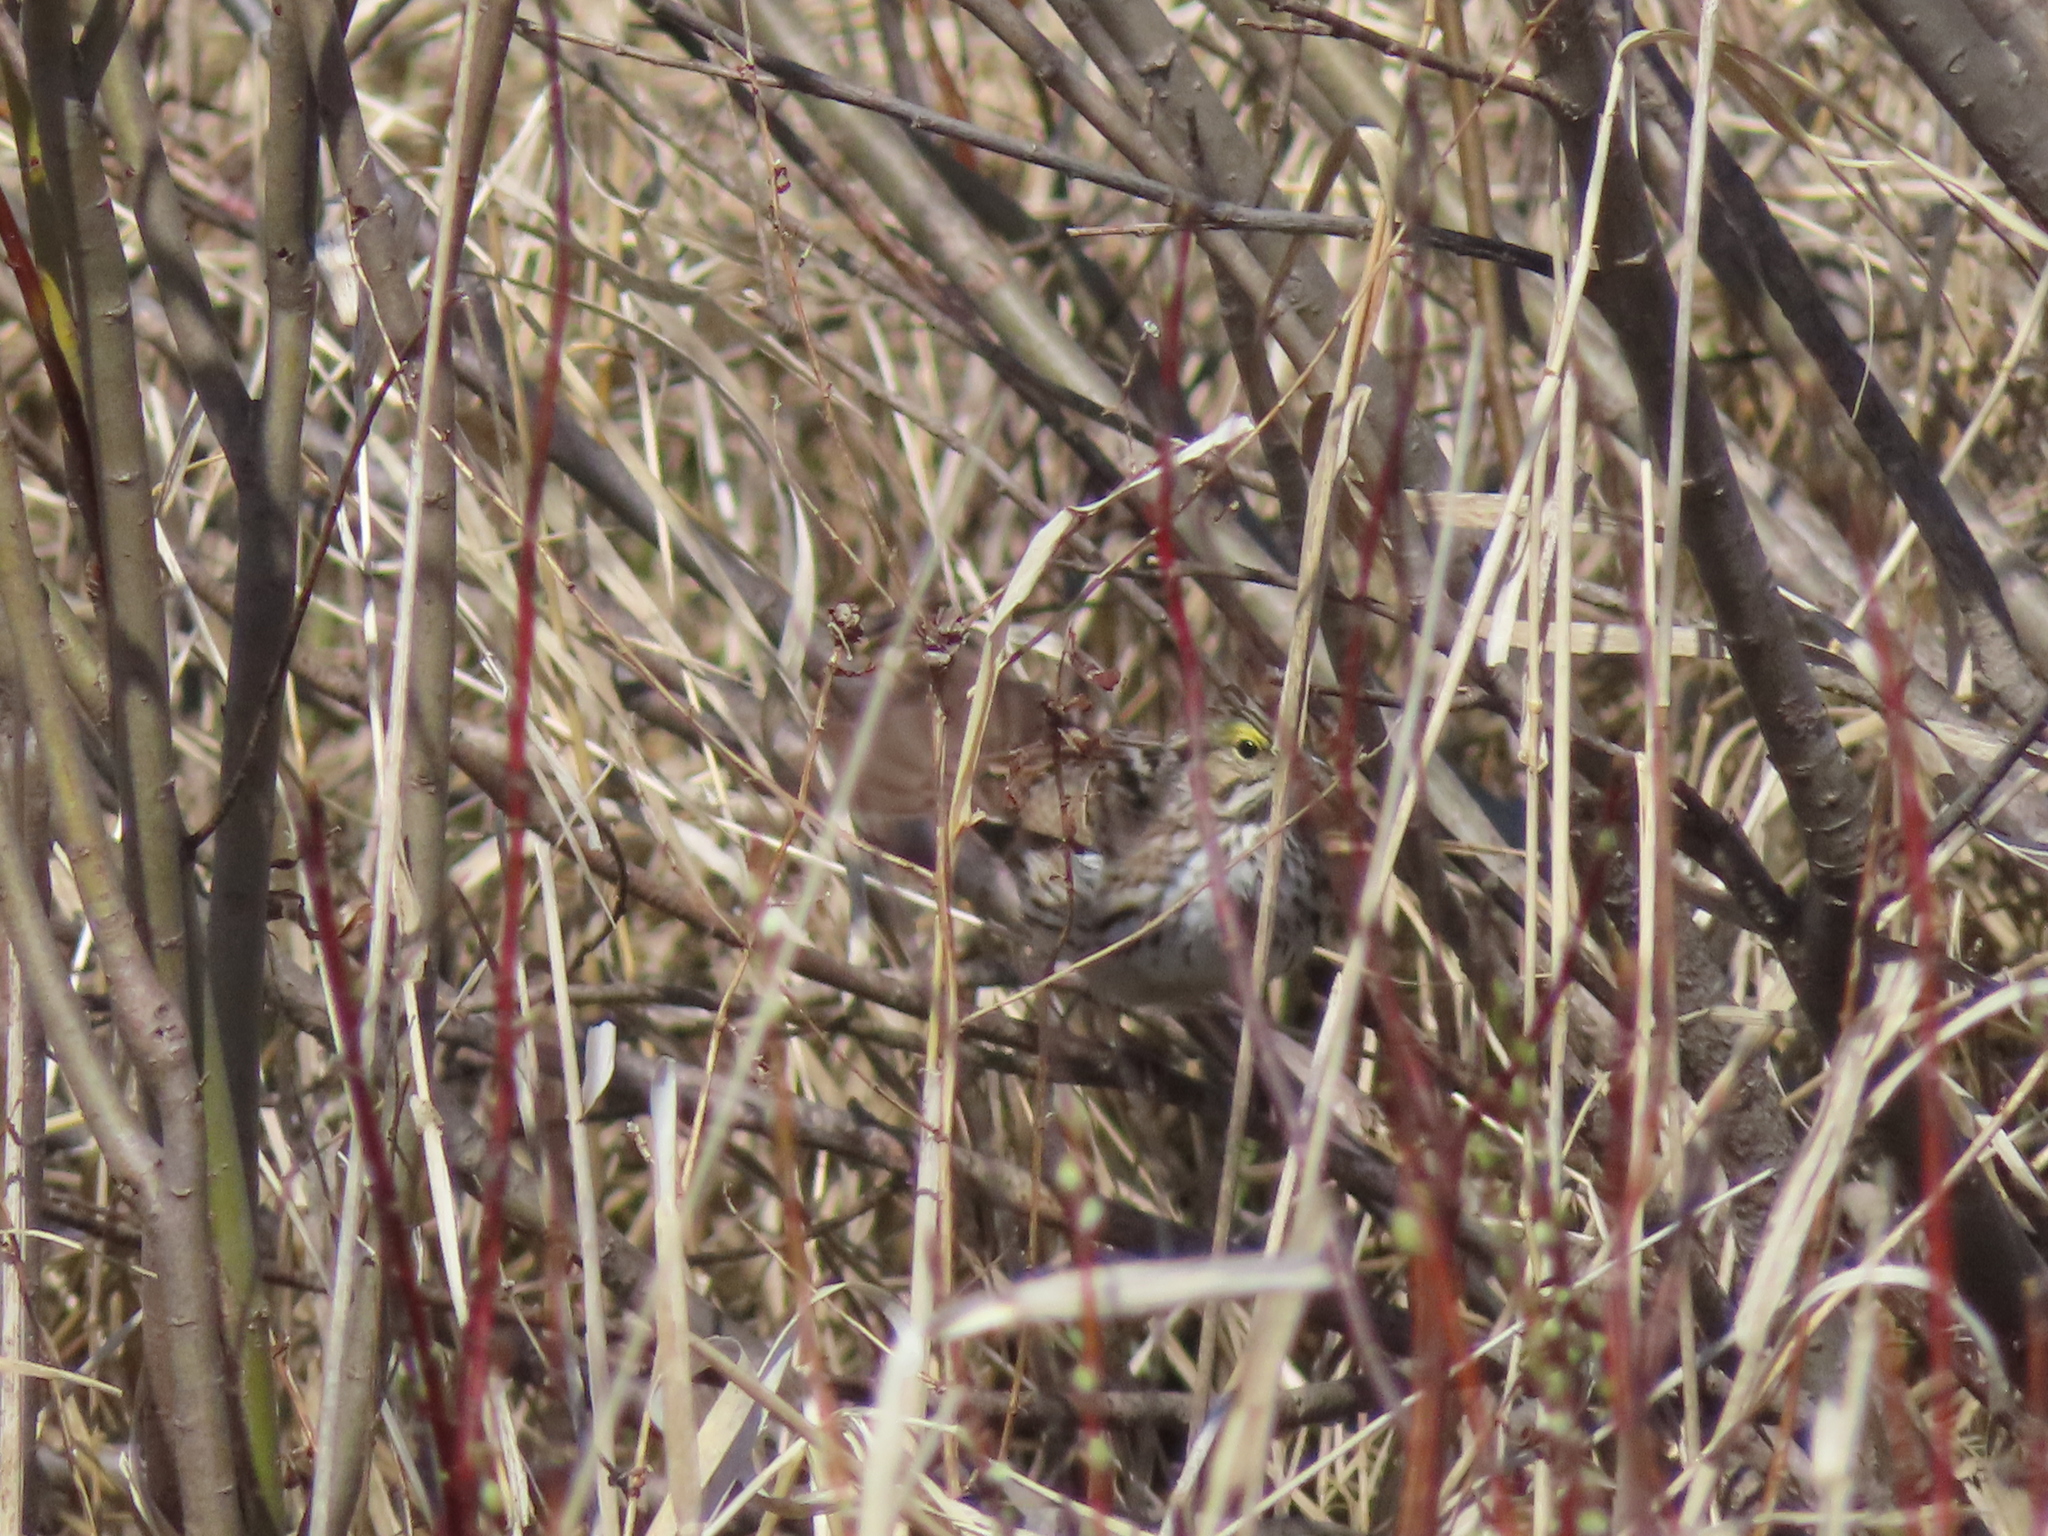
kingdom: Animalia
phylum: Chordata
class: Aves
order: Passeriformes
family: Passerellidae
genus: Passerculus
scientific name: Passerculus sandwichensis
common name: Savannah sparrow
